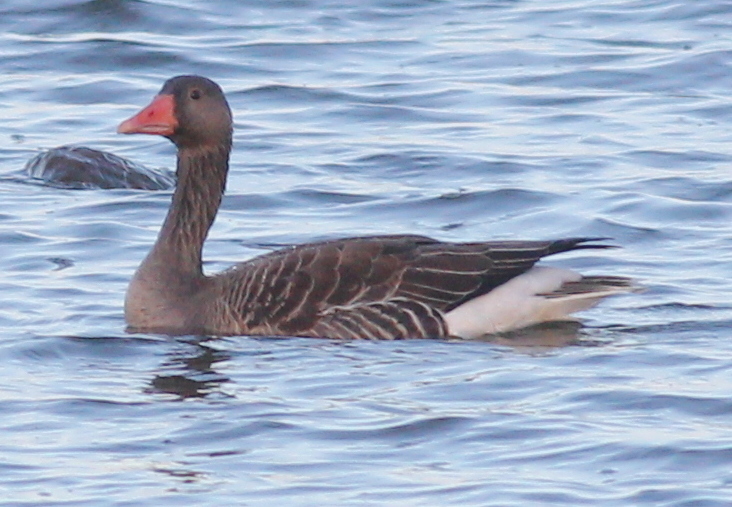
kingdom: Animalia
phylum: Chordata
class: Aves
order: Anseriformes
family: Anatidae
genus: Anser
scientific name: Anser anser
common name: Greylag goose
